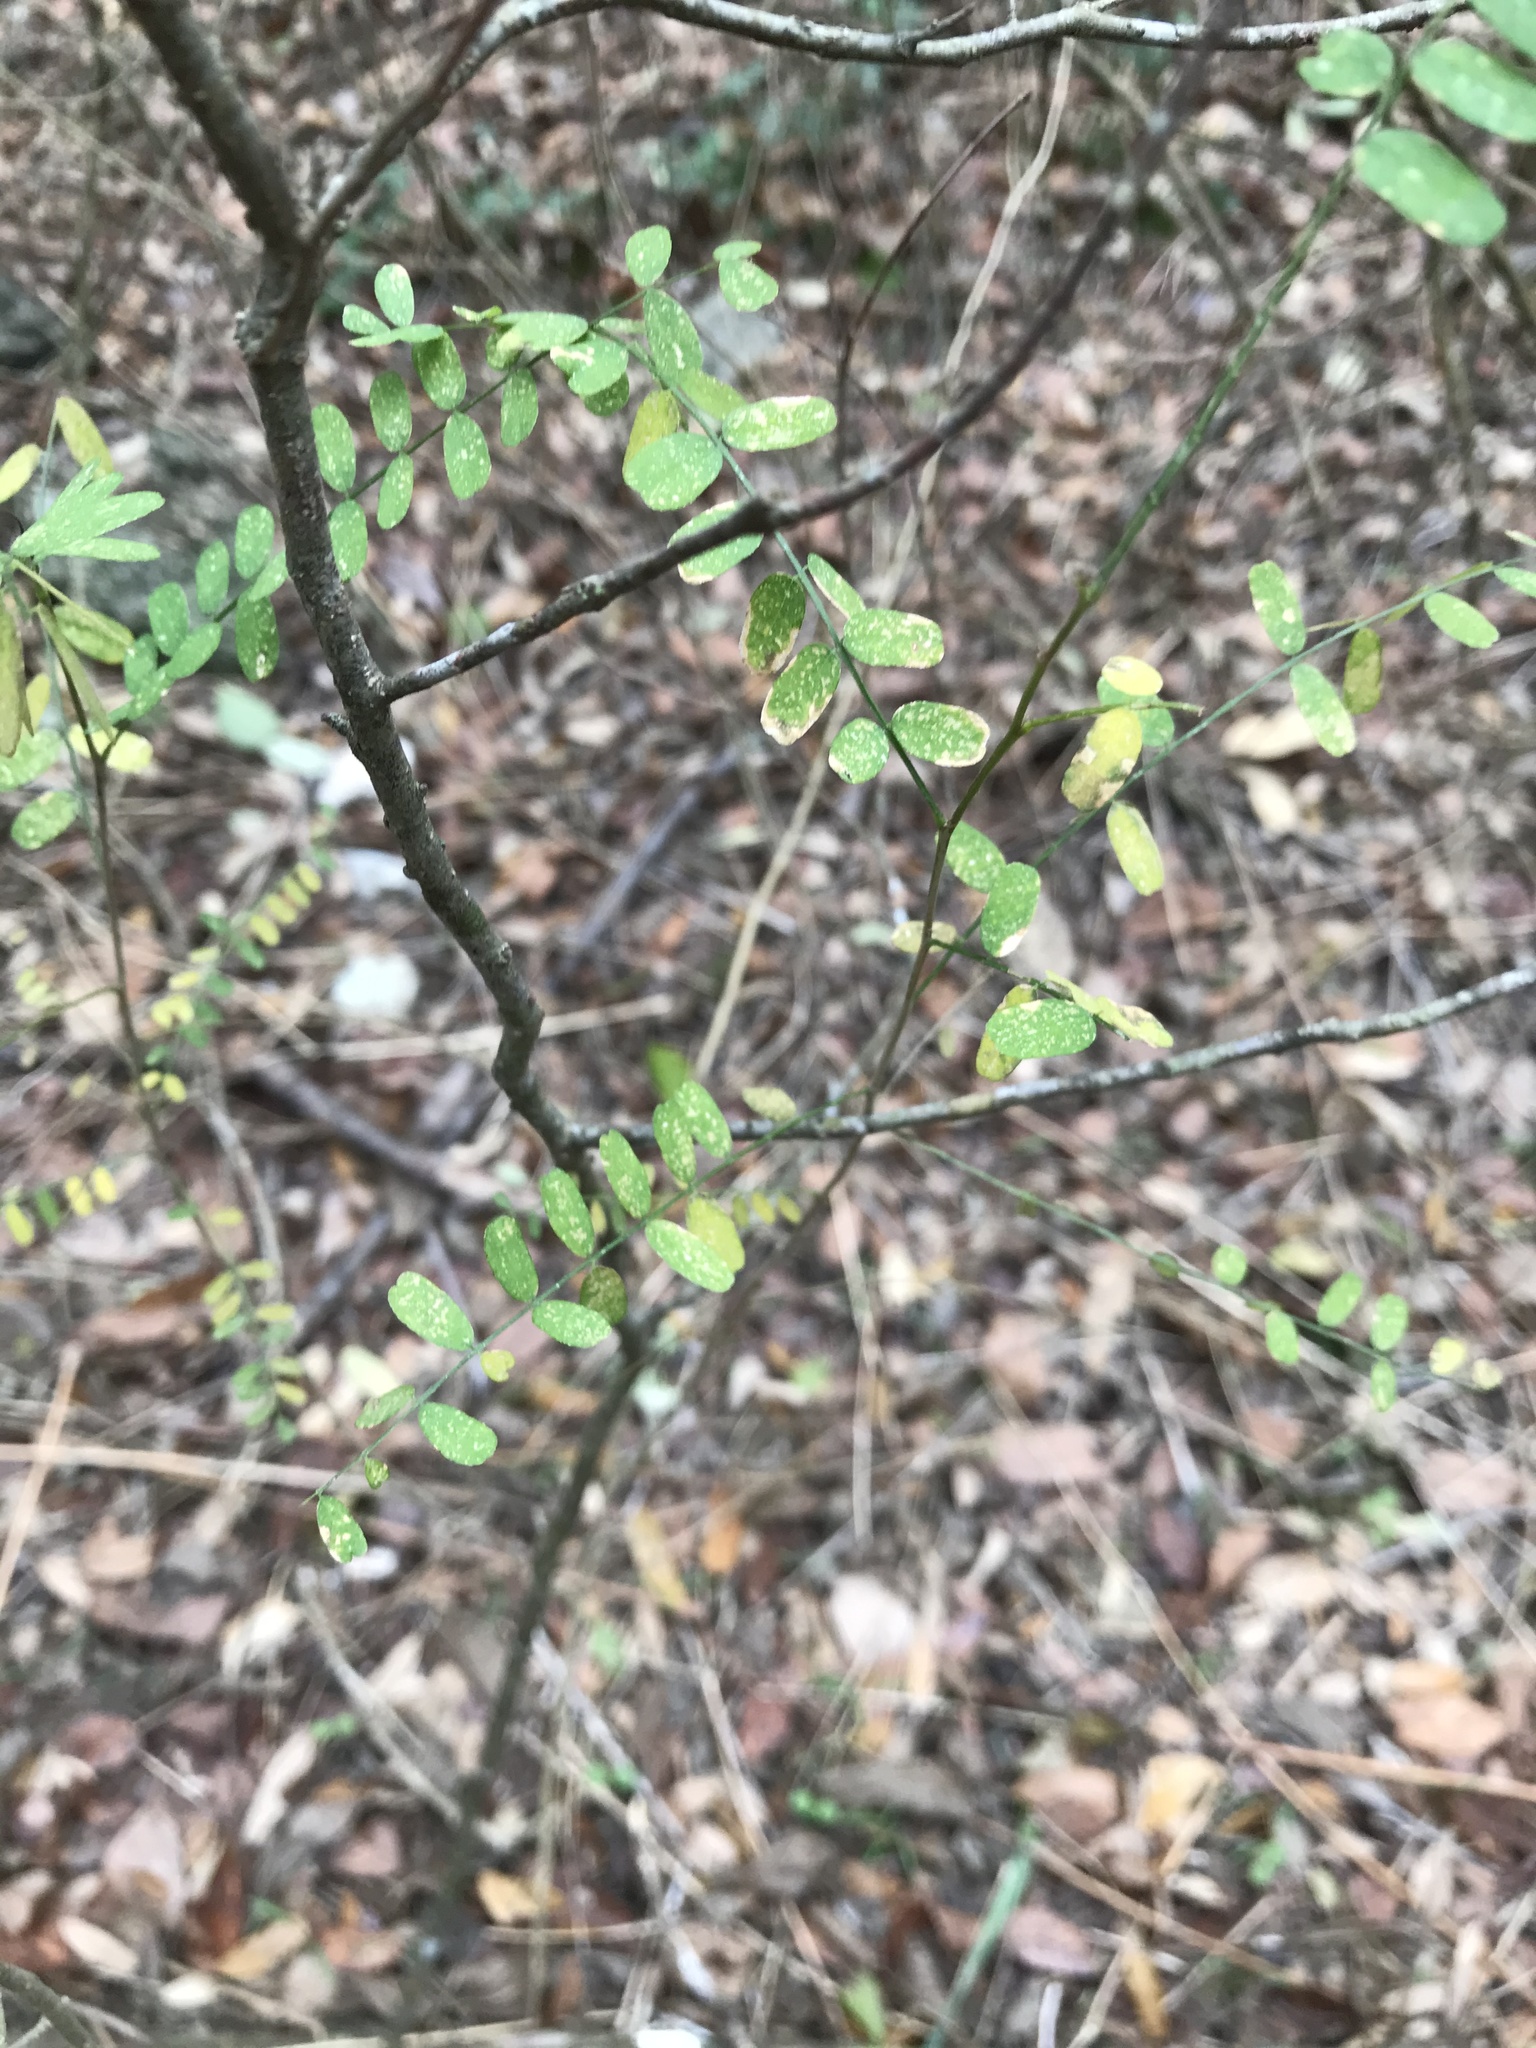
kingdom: Plantae
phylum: Tracheophyta
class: Magnoliopsida
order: Fabales
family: Fabaceae
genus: Styphnolobium
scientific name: Styphnolobium affine
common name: Texas sophora
